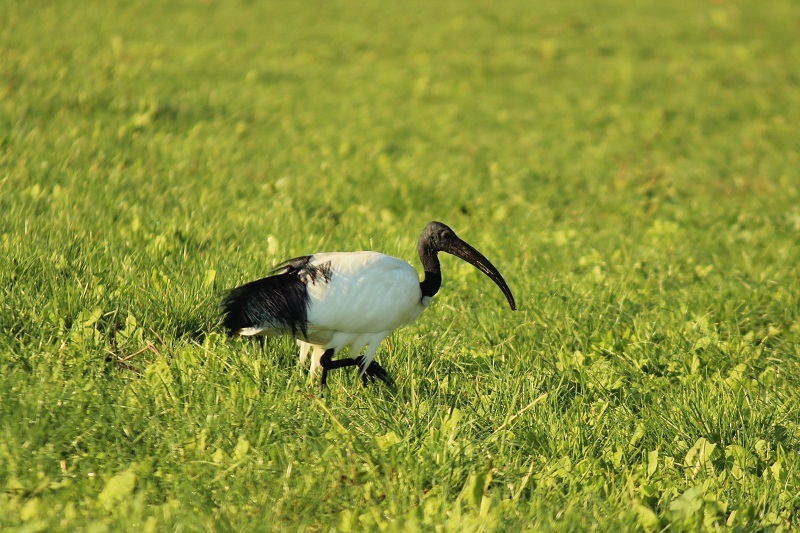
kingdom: Animalia
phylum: Chordata
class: Aves
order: Pelecaniformes
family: Threskiornithidae
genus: Threskiornis
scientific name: Threskiornis aethiopicus
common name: Sacred ibis
